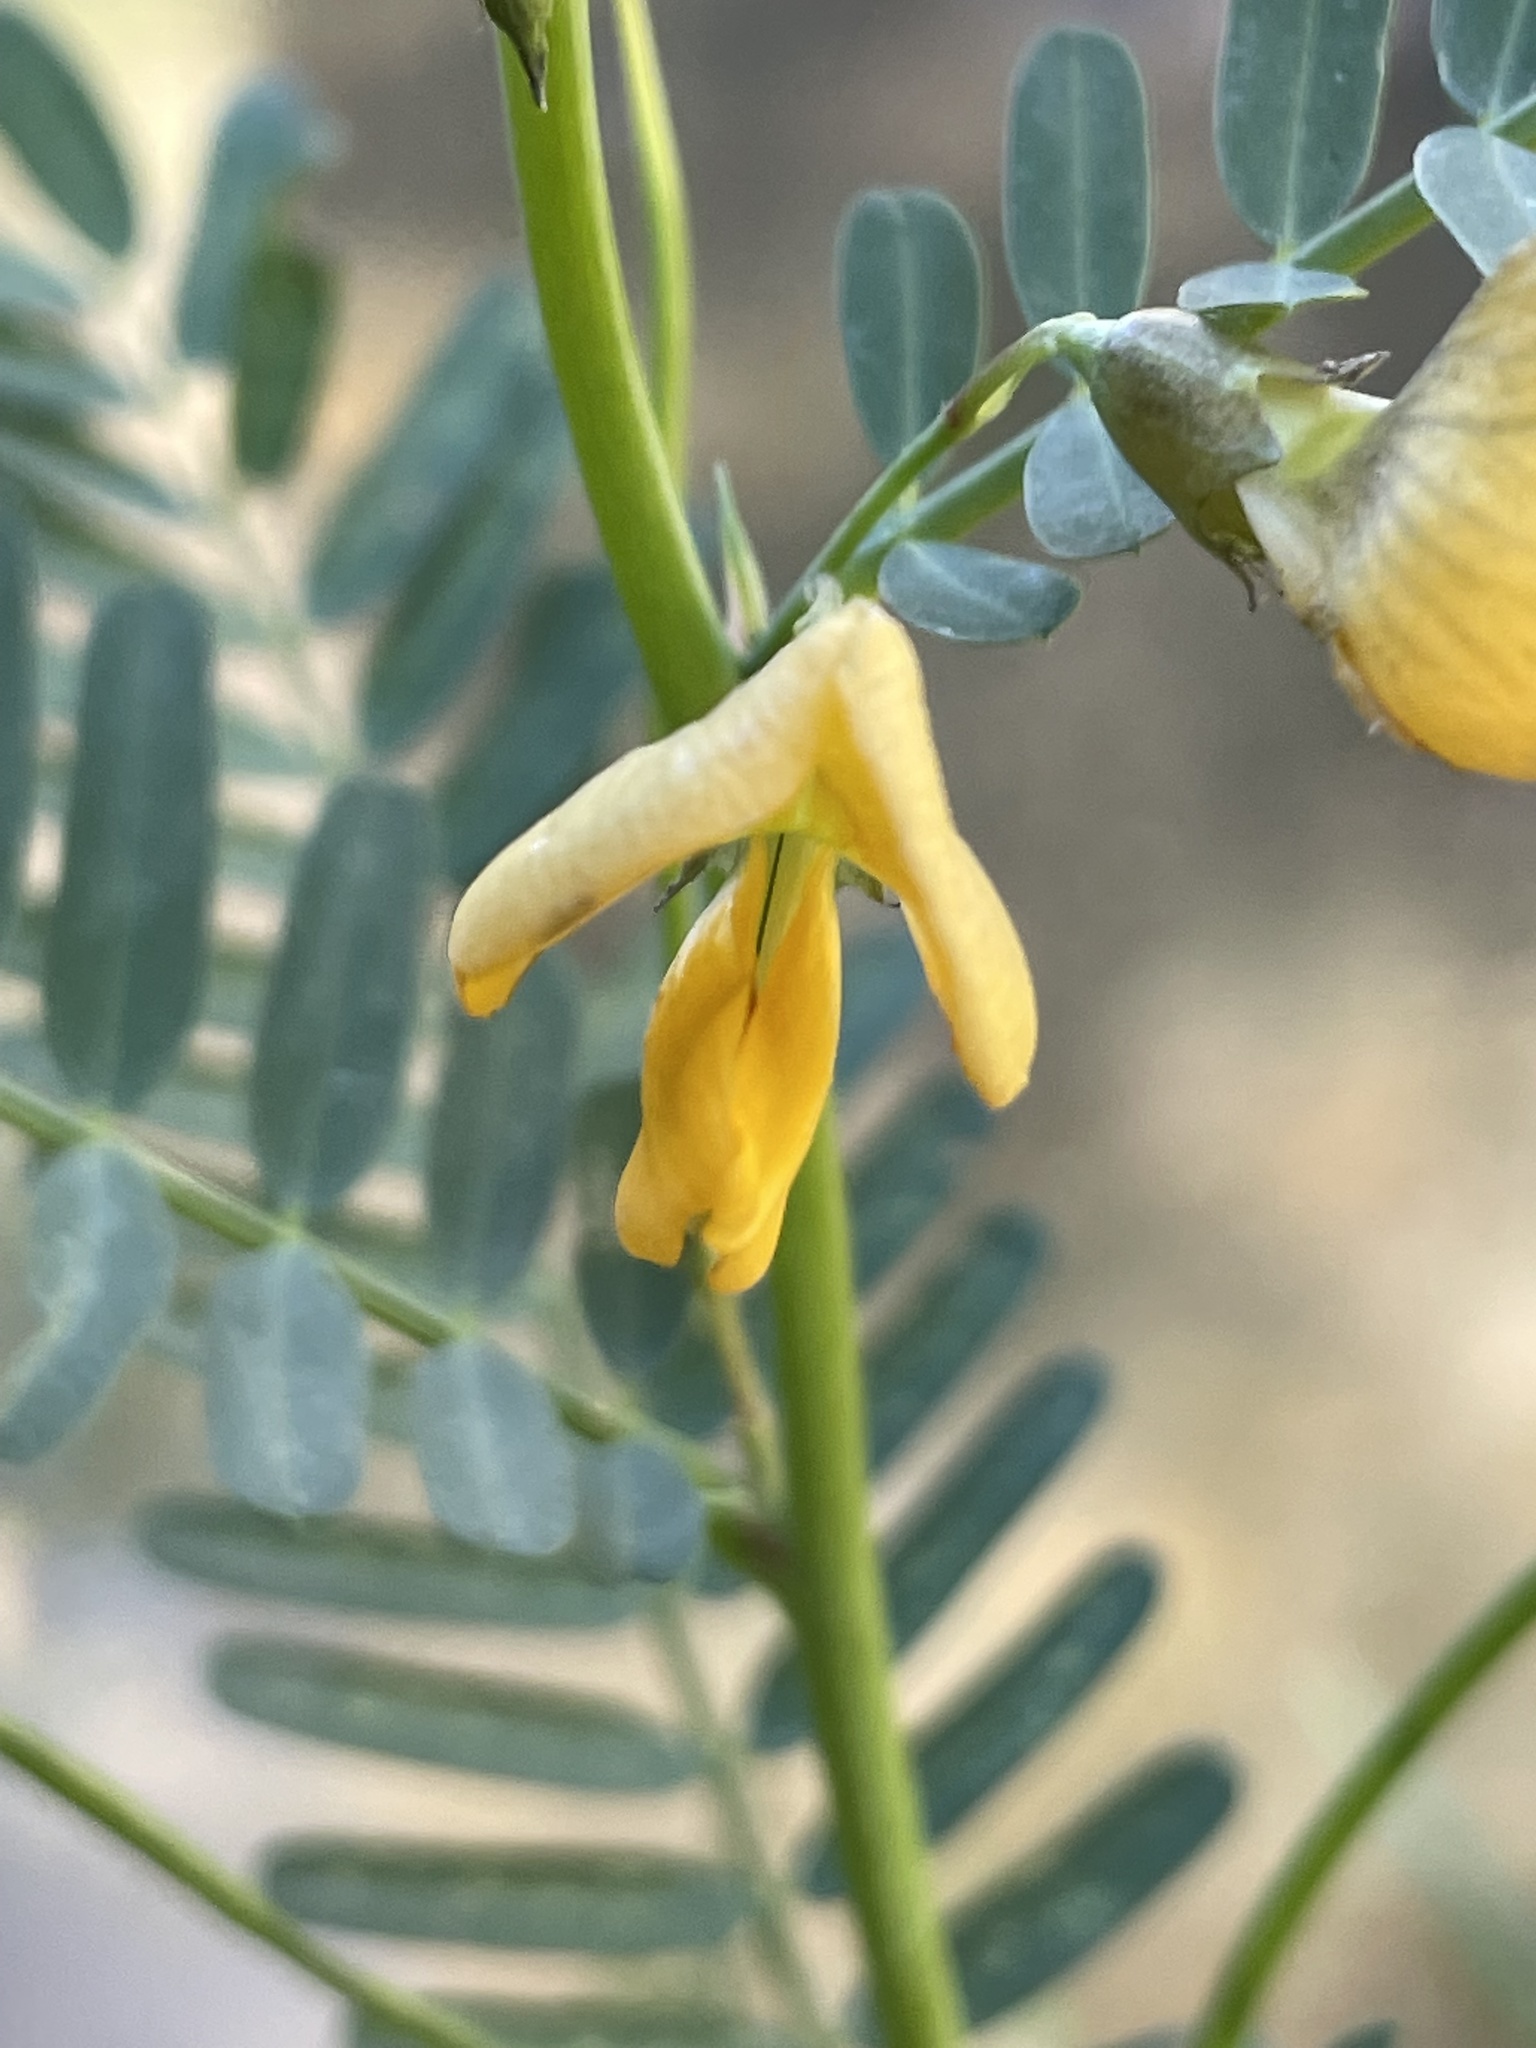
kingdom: Plantae
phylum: Tracheophyta
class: Magnoliopsida
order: Fabales
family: Fabaceae
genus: Sesbania
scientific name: Sesbania herbacea
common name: Bigpod sesbania
